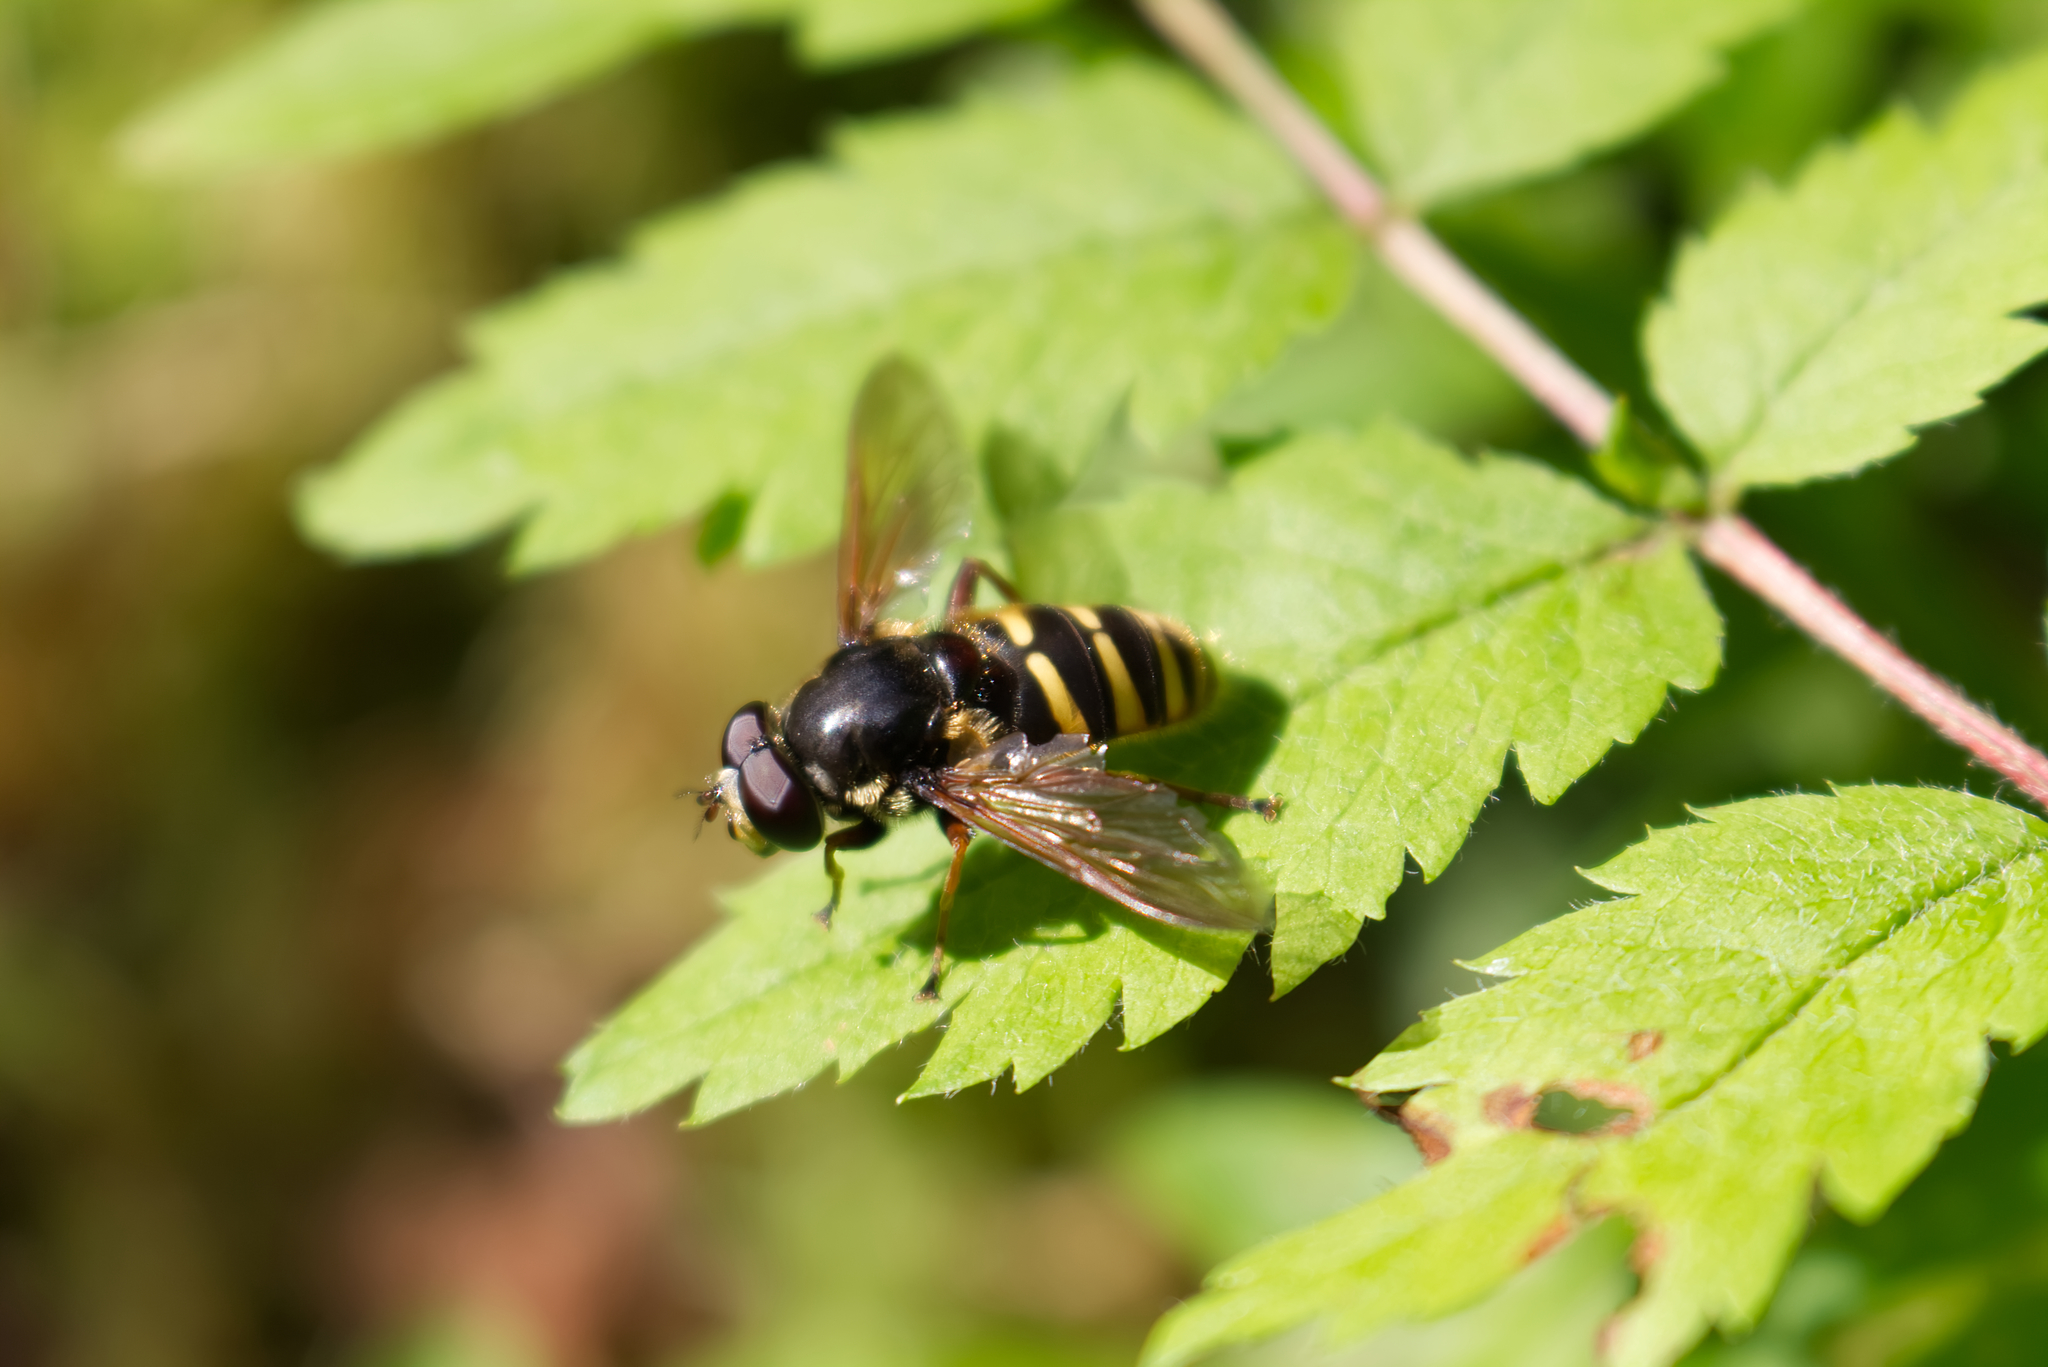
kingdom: Animalia
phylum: Arthropoda
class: Insecta
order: Diptera
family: Syrphidae
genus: Sericomyia
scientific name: Sericomyia silentis
